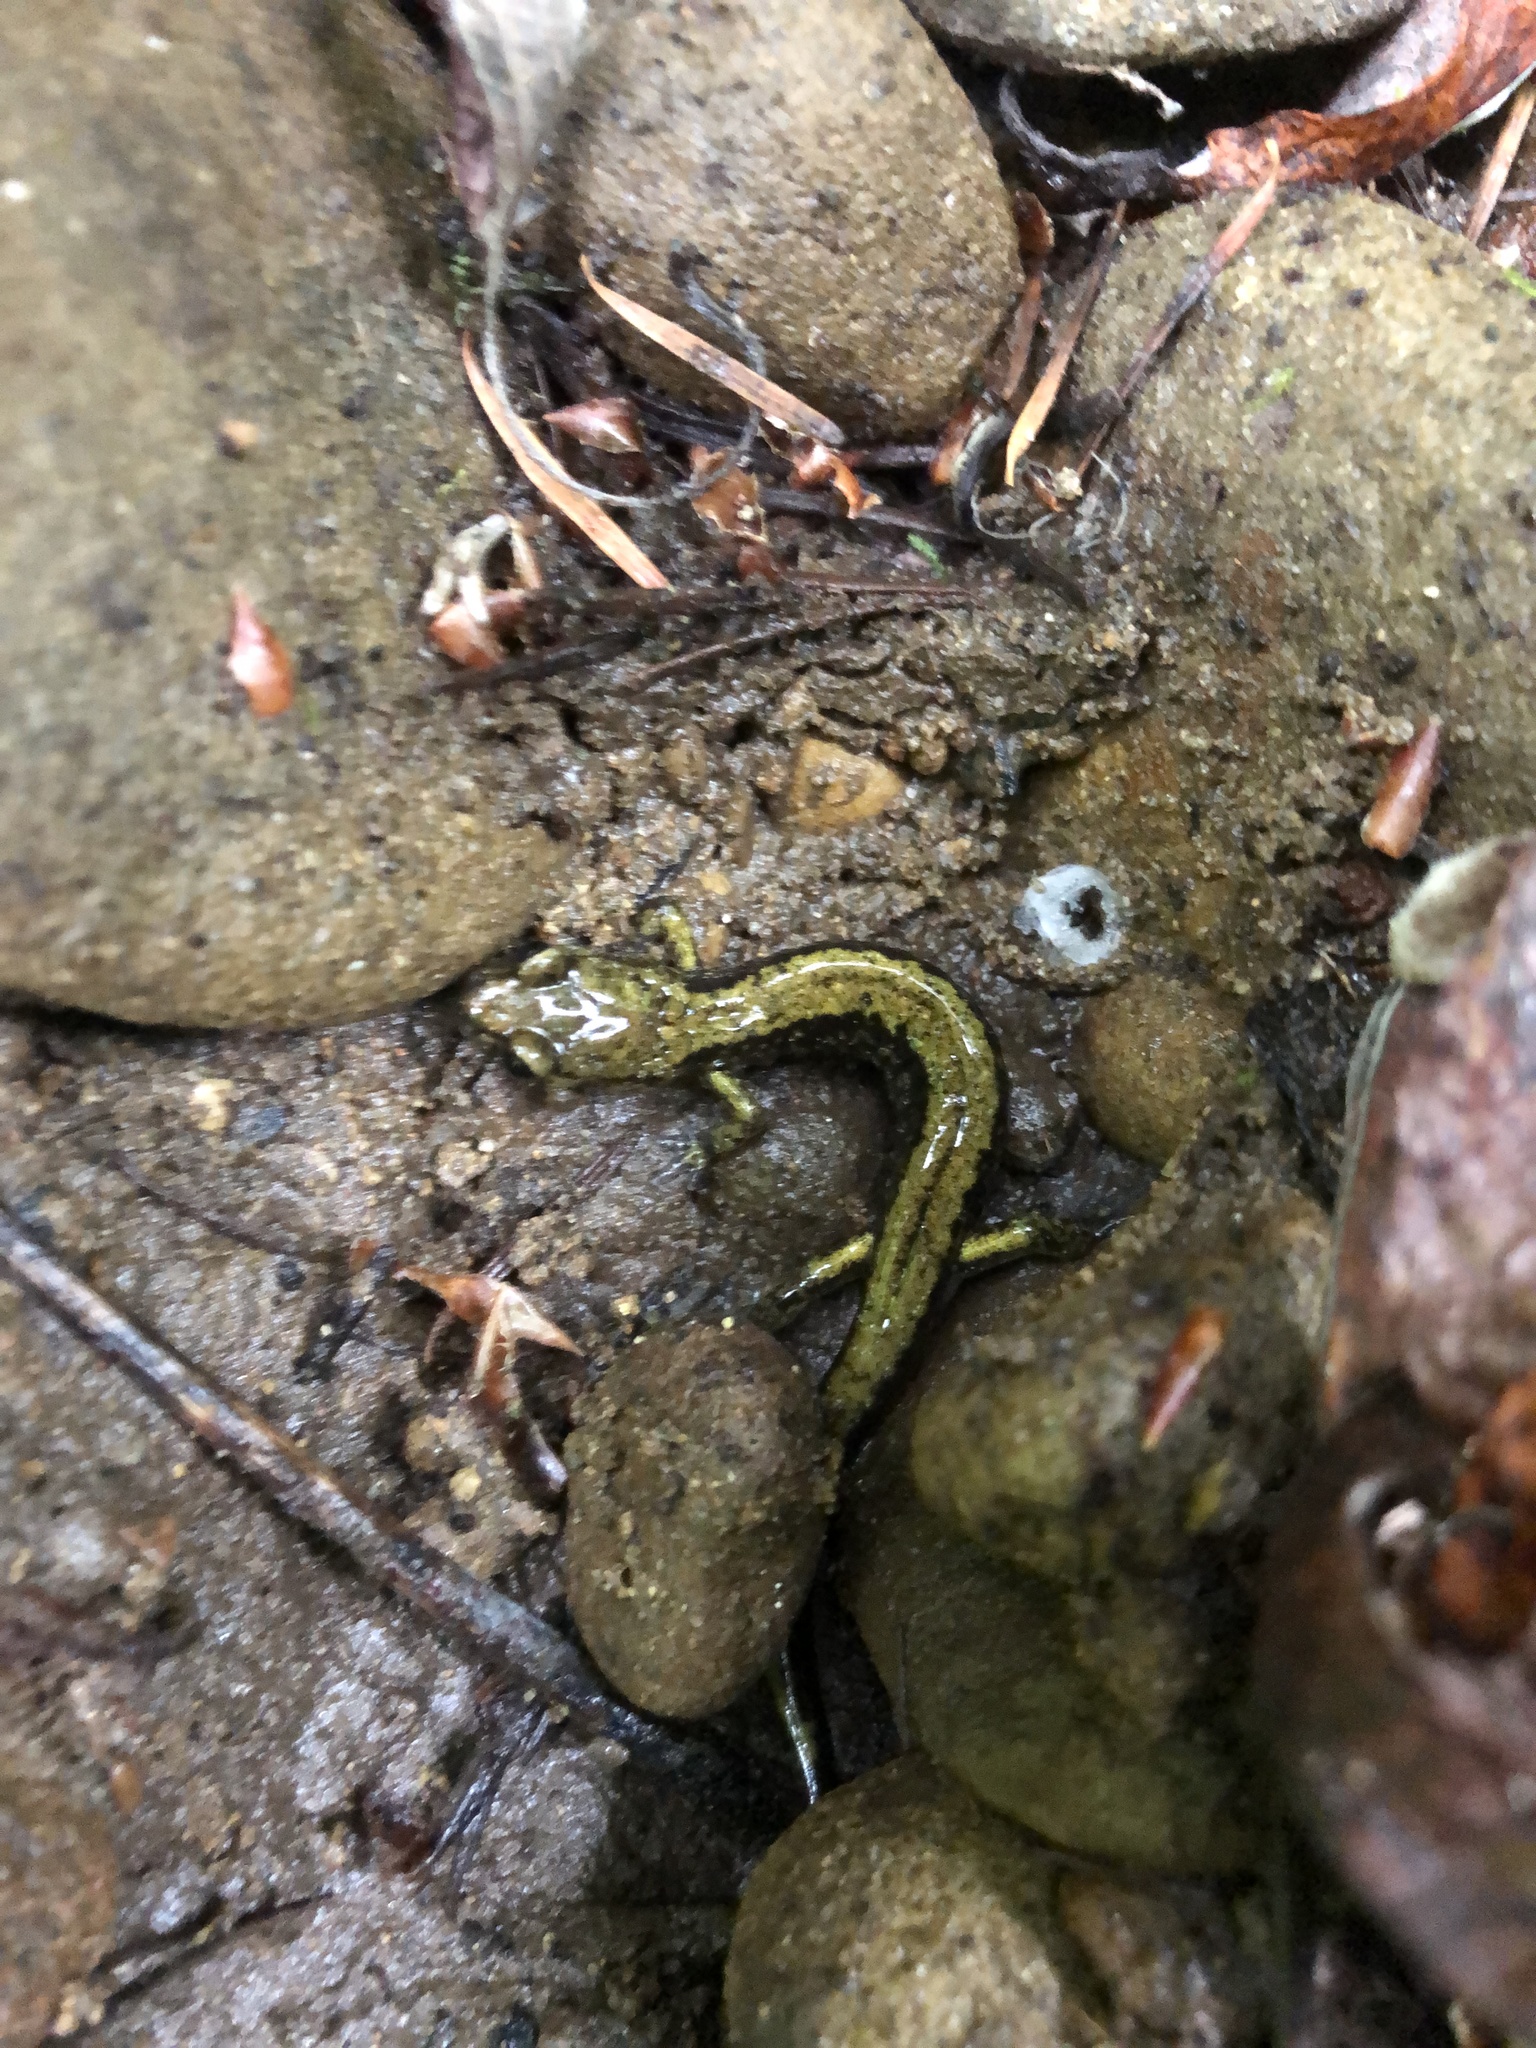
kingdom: Animalia
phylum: Chordata
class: Amphibia
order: Caudata
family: Plethodontidae
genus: Plethodon
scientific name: Plethodon dunni
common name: Dunn's salamander
